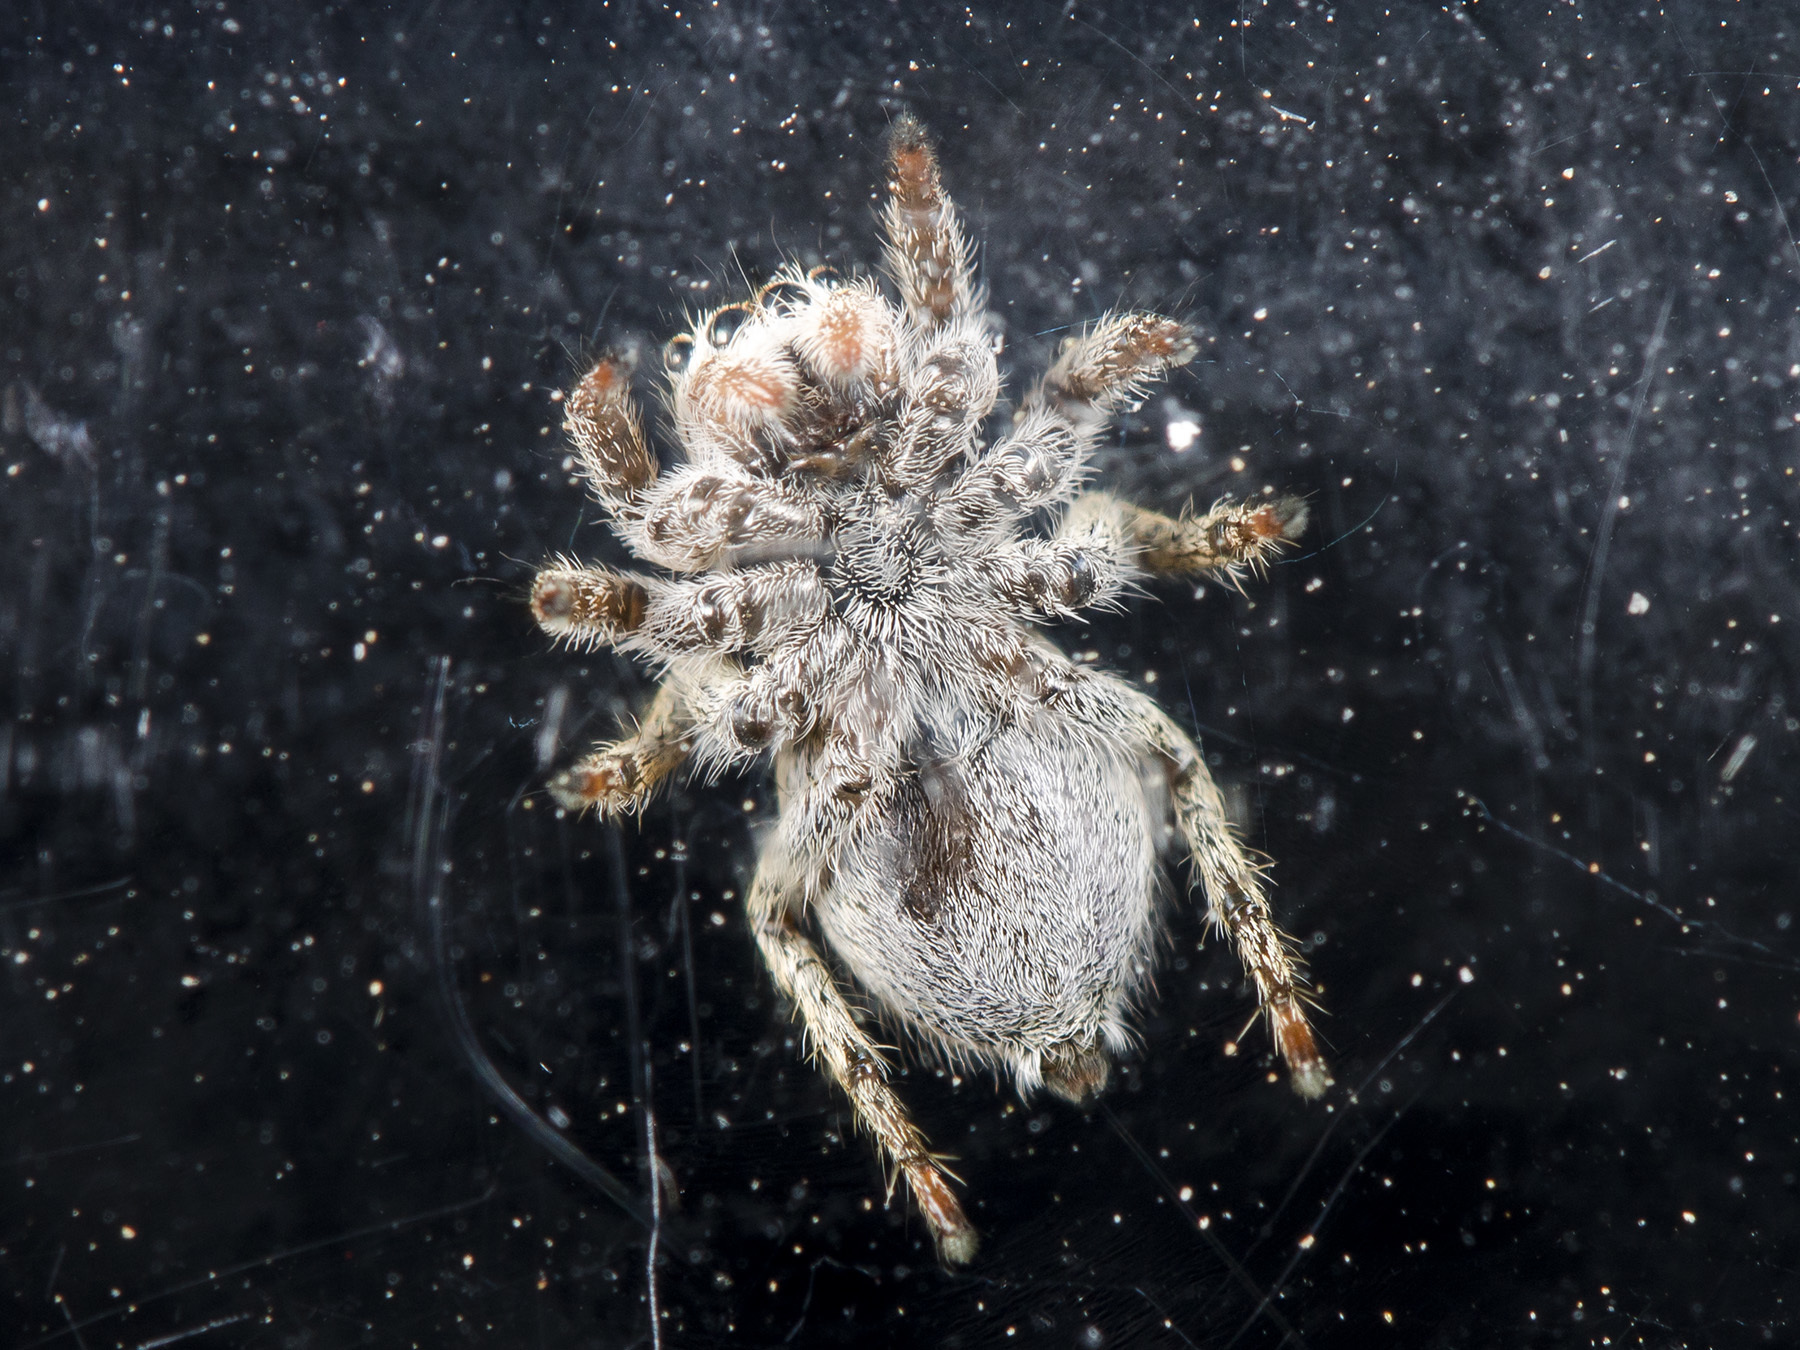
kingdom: Animalia
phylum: Arthropoda
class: Arachnida
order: Araneae
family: Salticidae
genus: Aelurillus
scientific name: Aelurillus dubatolovi
